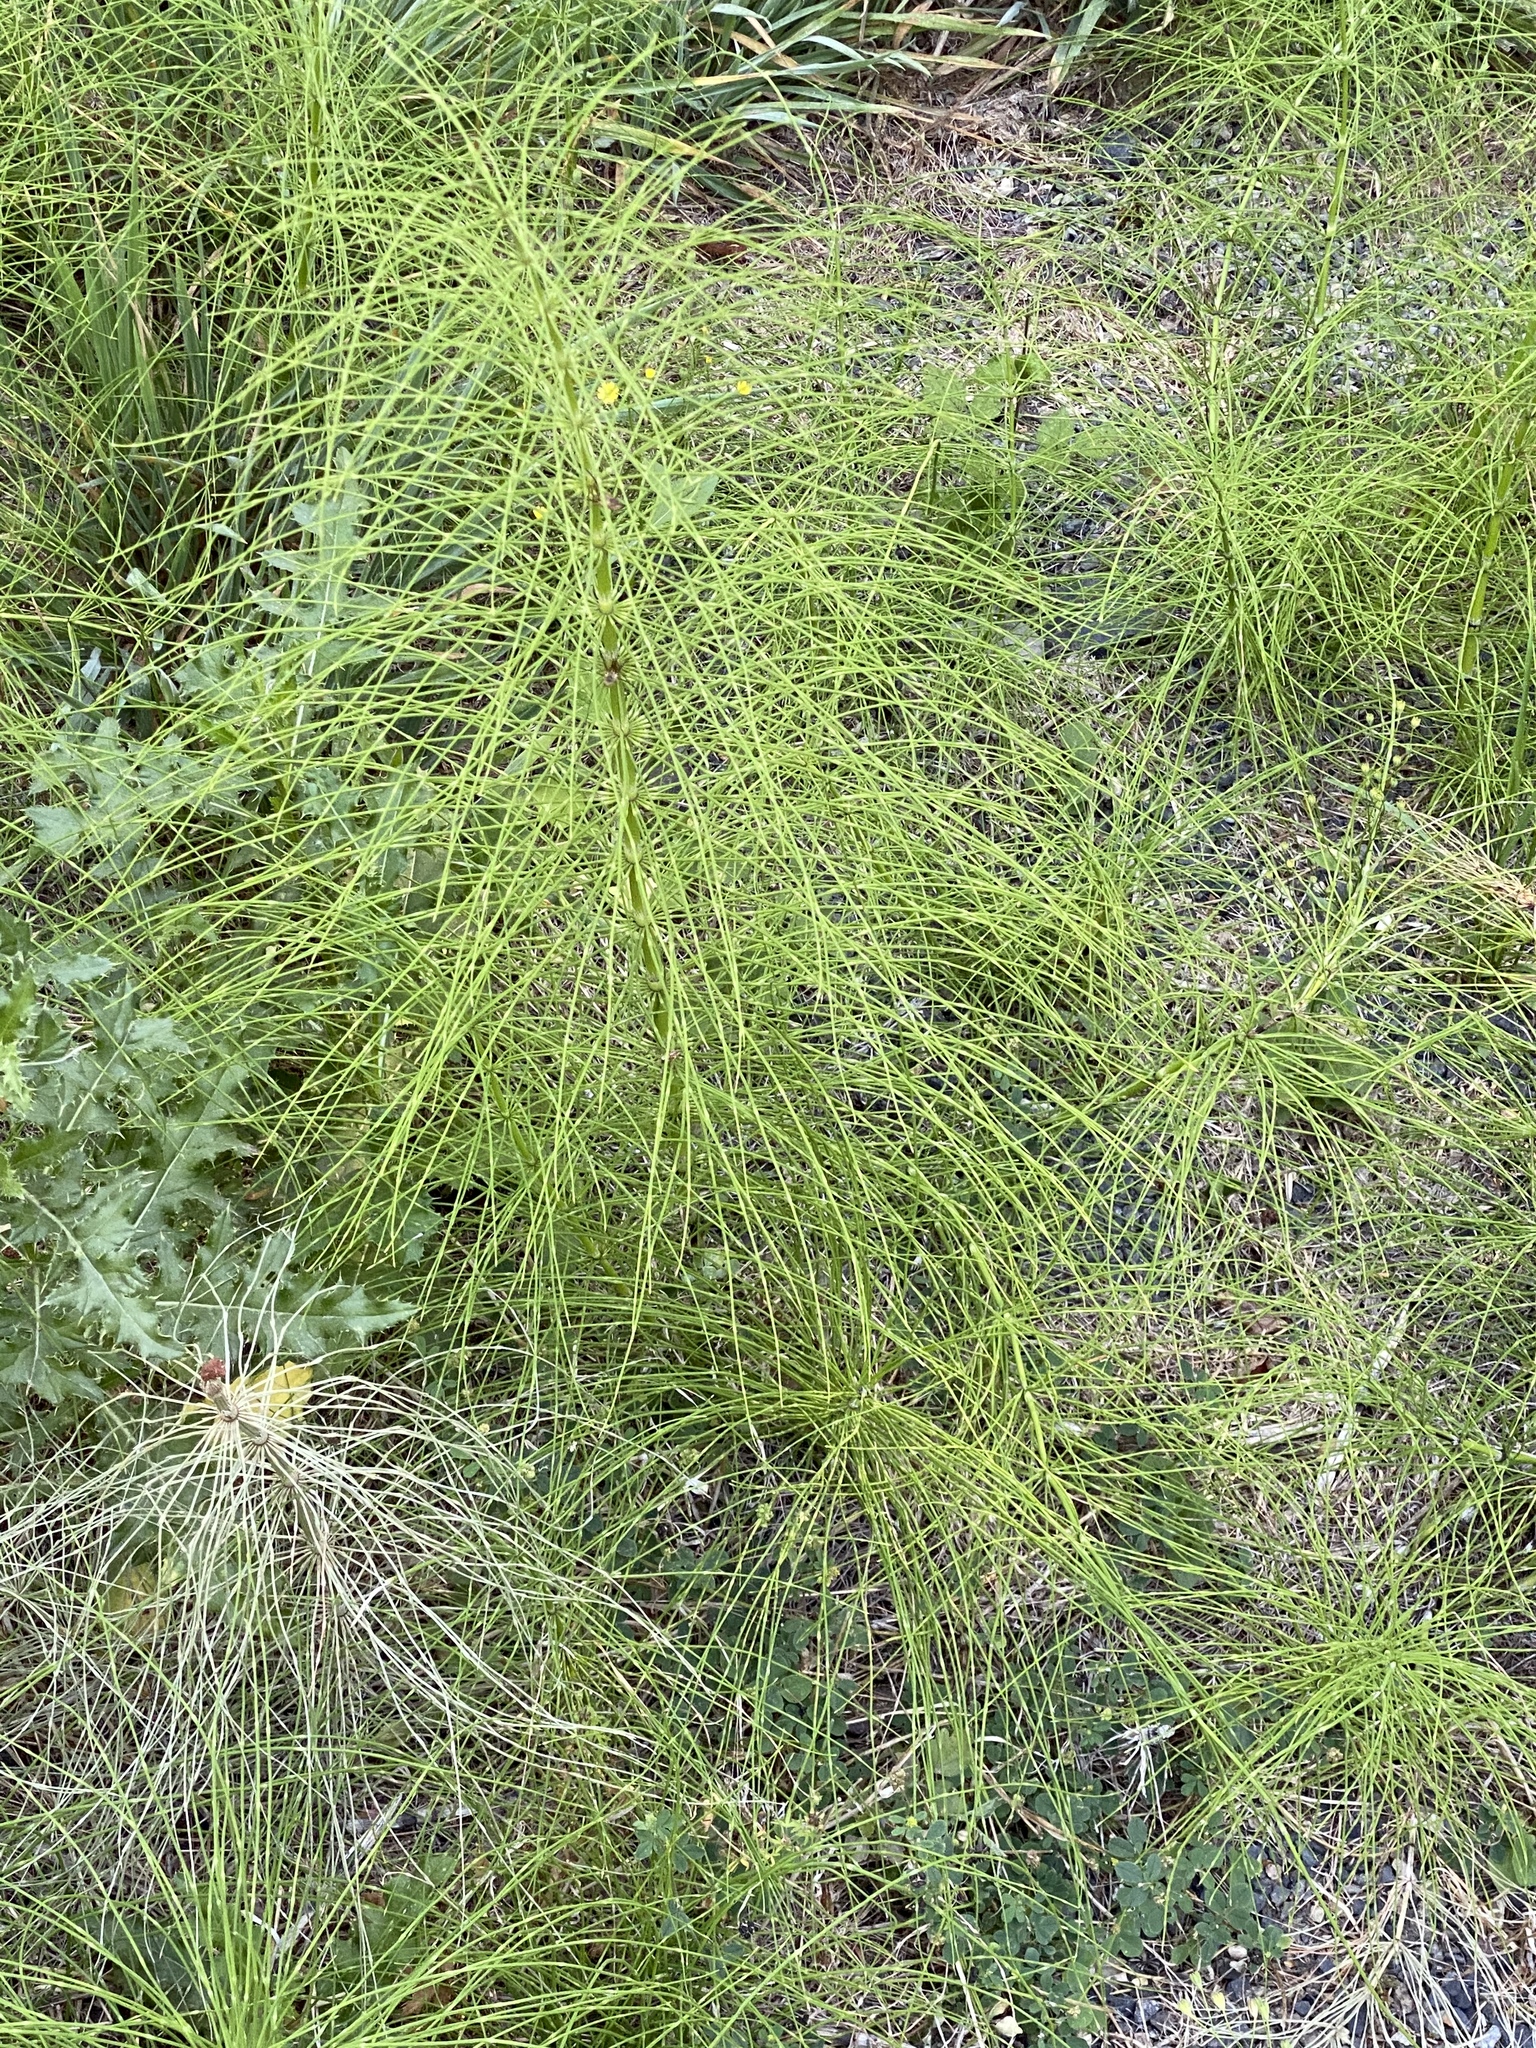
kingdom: Plantae
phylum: Tracheophyta
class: Polypodiopsida
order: Equisetales
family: Equisetaceae
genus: Equisetum
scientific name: Equisetum telmateia
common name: Great horsetail
